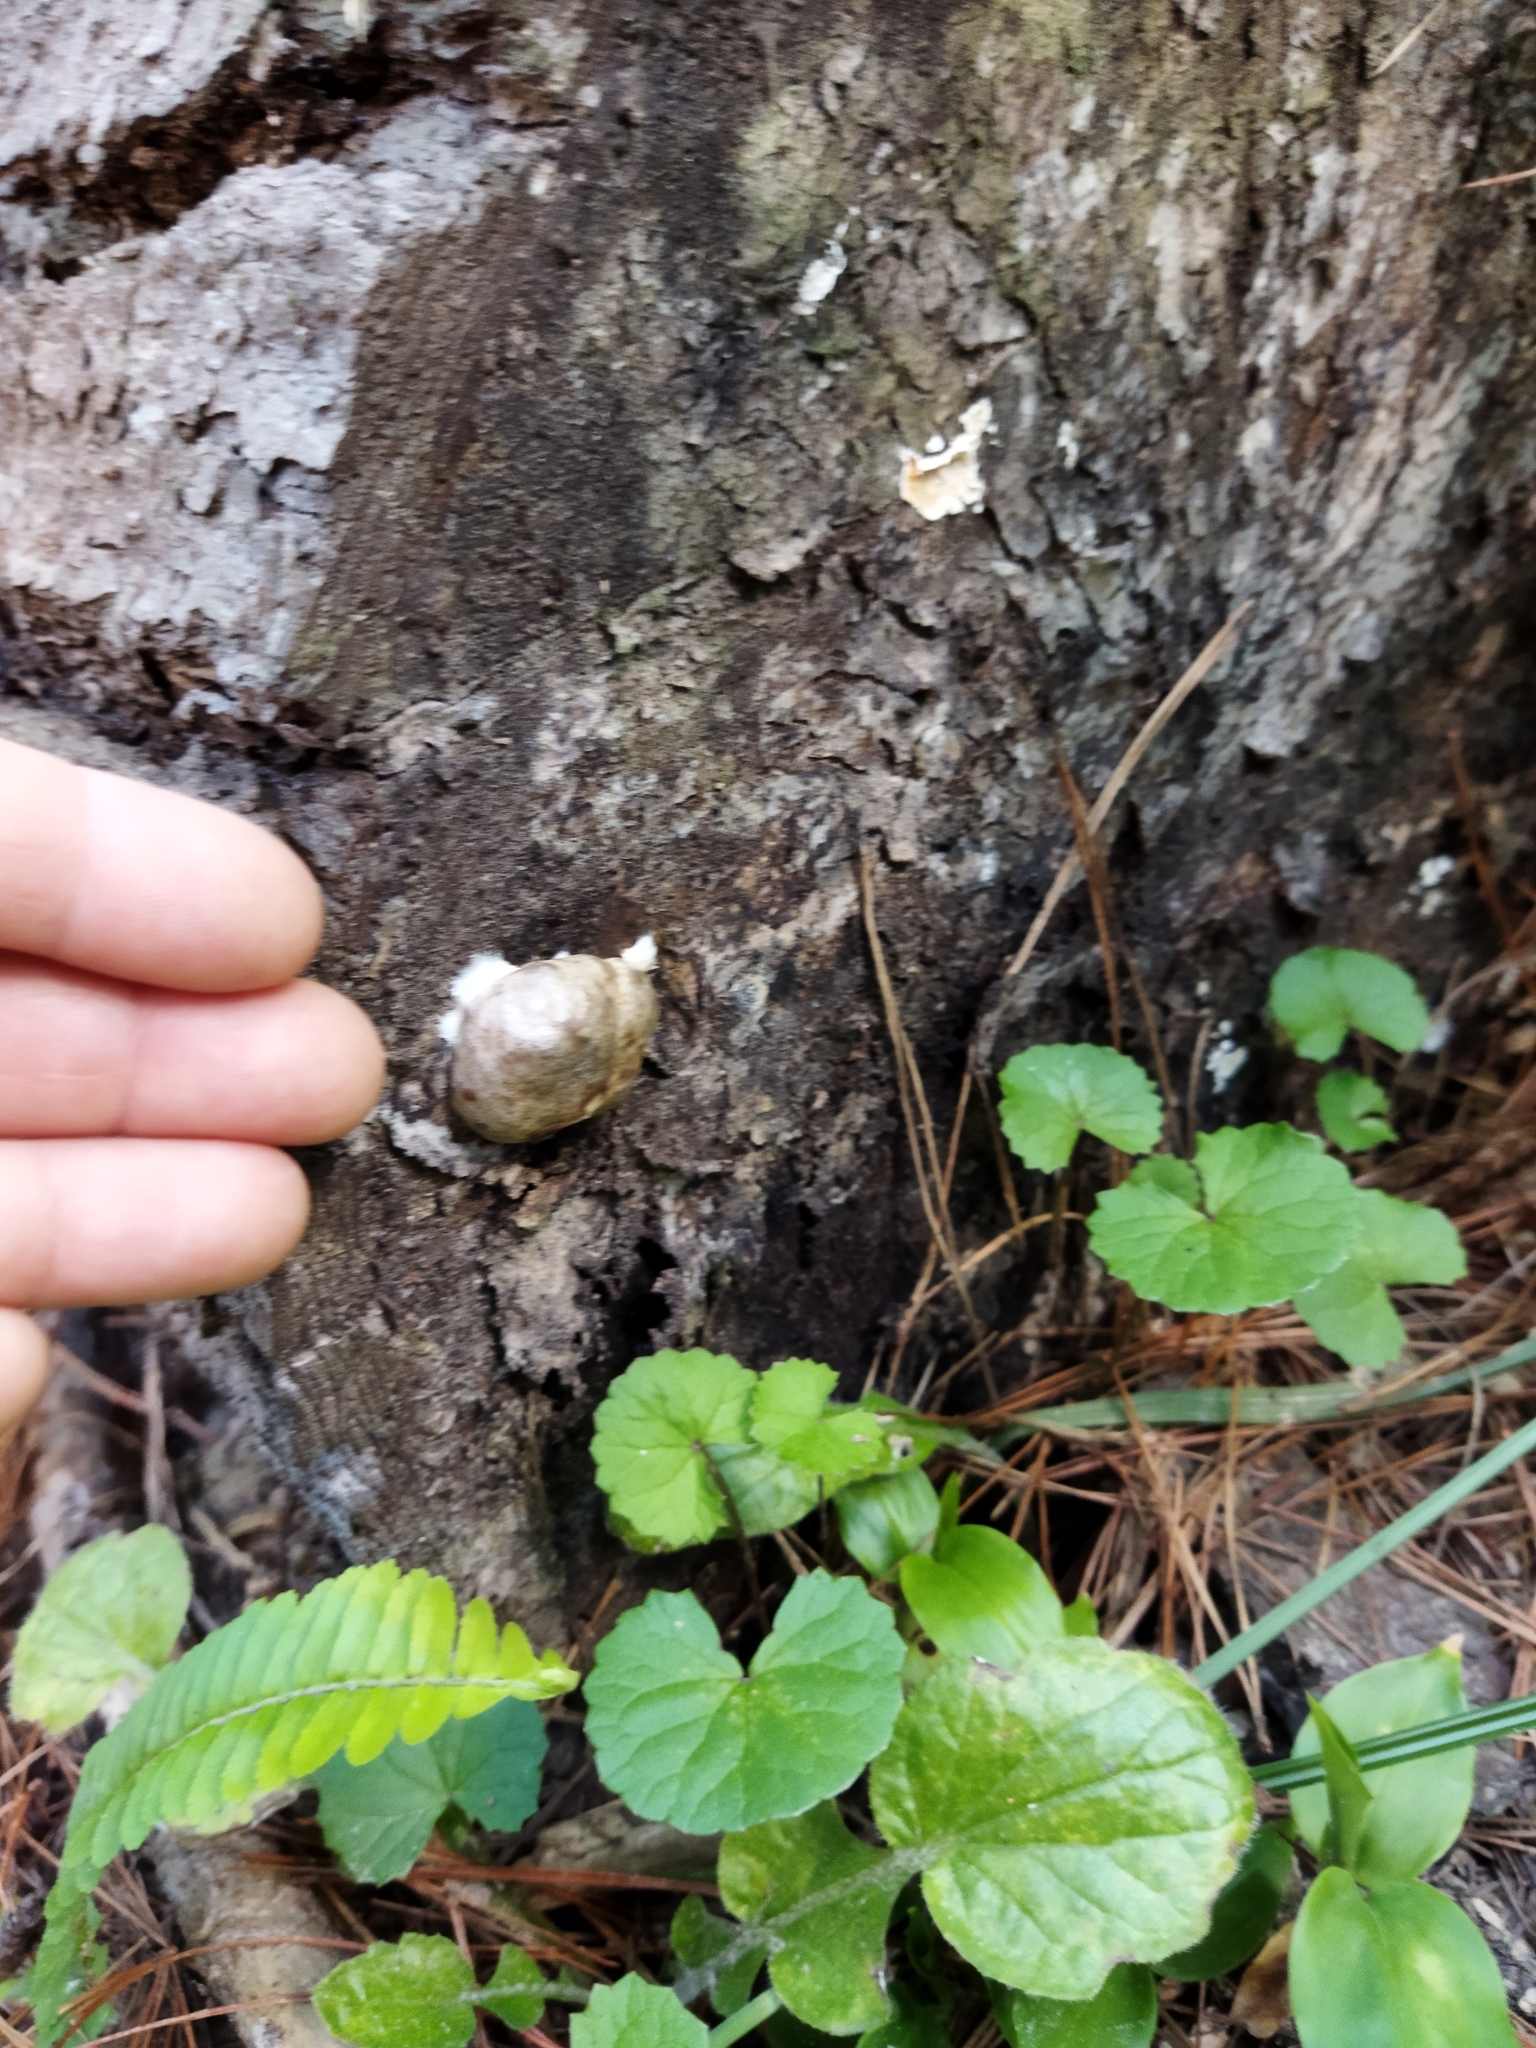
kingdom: Protozoa
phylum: Mycetozoa
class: Myxomycetes
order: Cribrariales
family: Tubiferaceae
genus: Reticularia
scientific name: Reticularia lycoperdon
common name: False puffball
